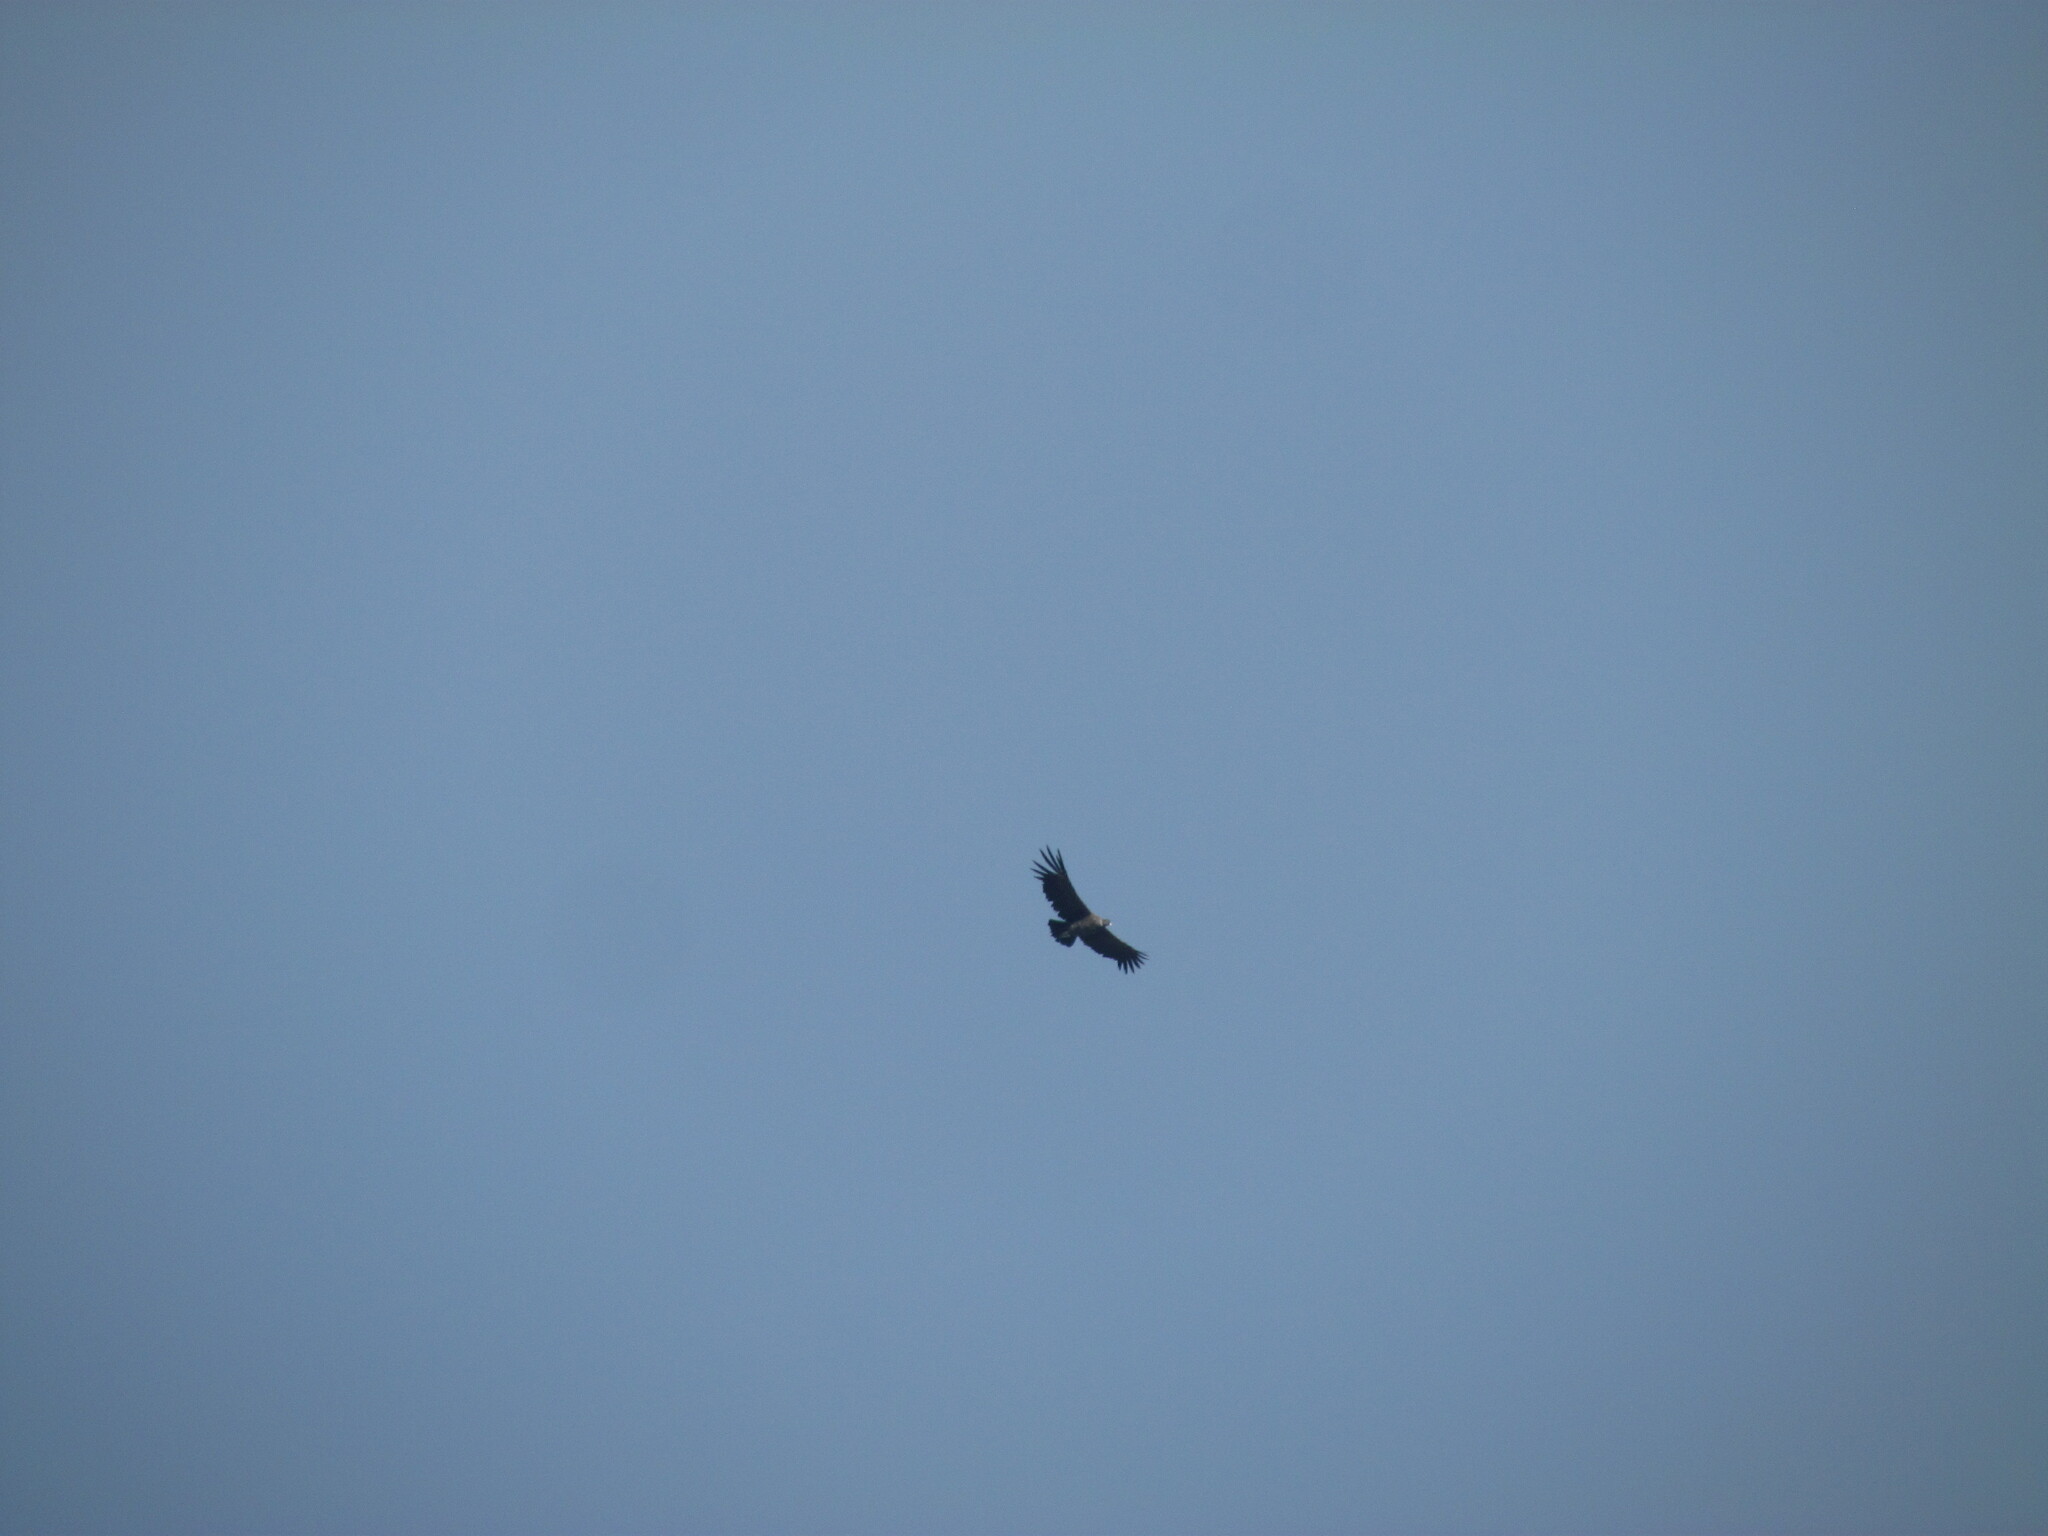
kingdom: Animalia
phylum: Chordata
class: Aves
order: Accipitriformes
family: Cathartidae
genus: Vultur
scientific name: Vultur gryphus
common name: Andean condor
